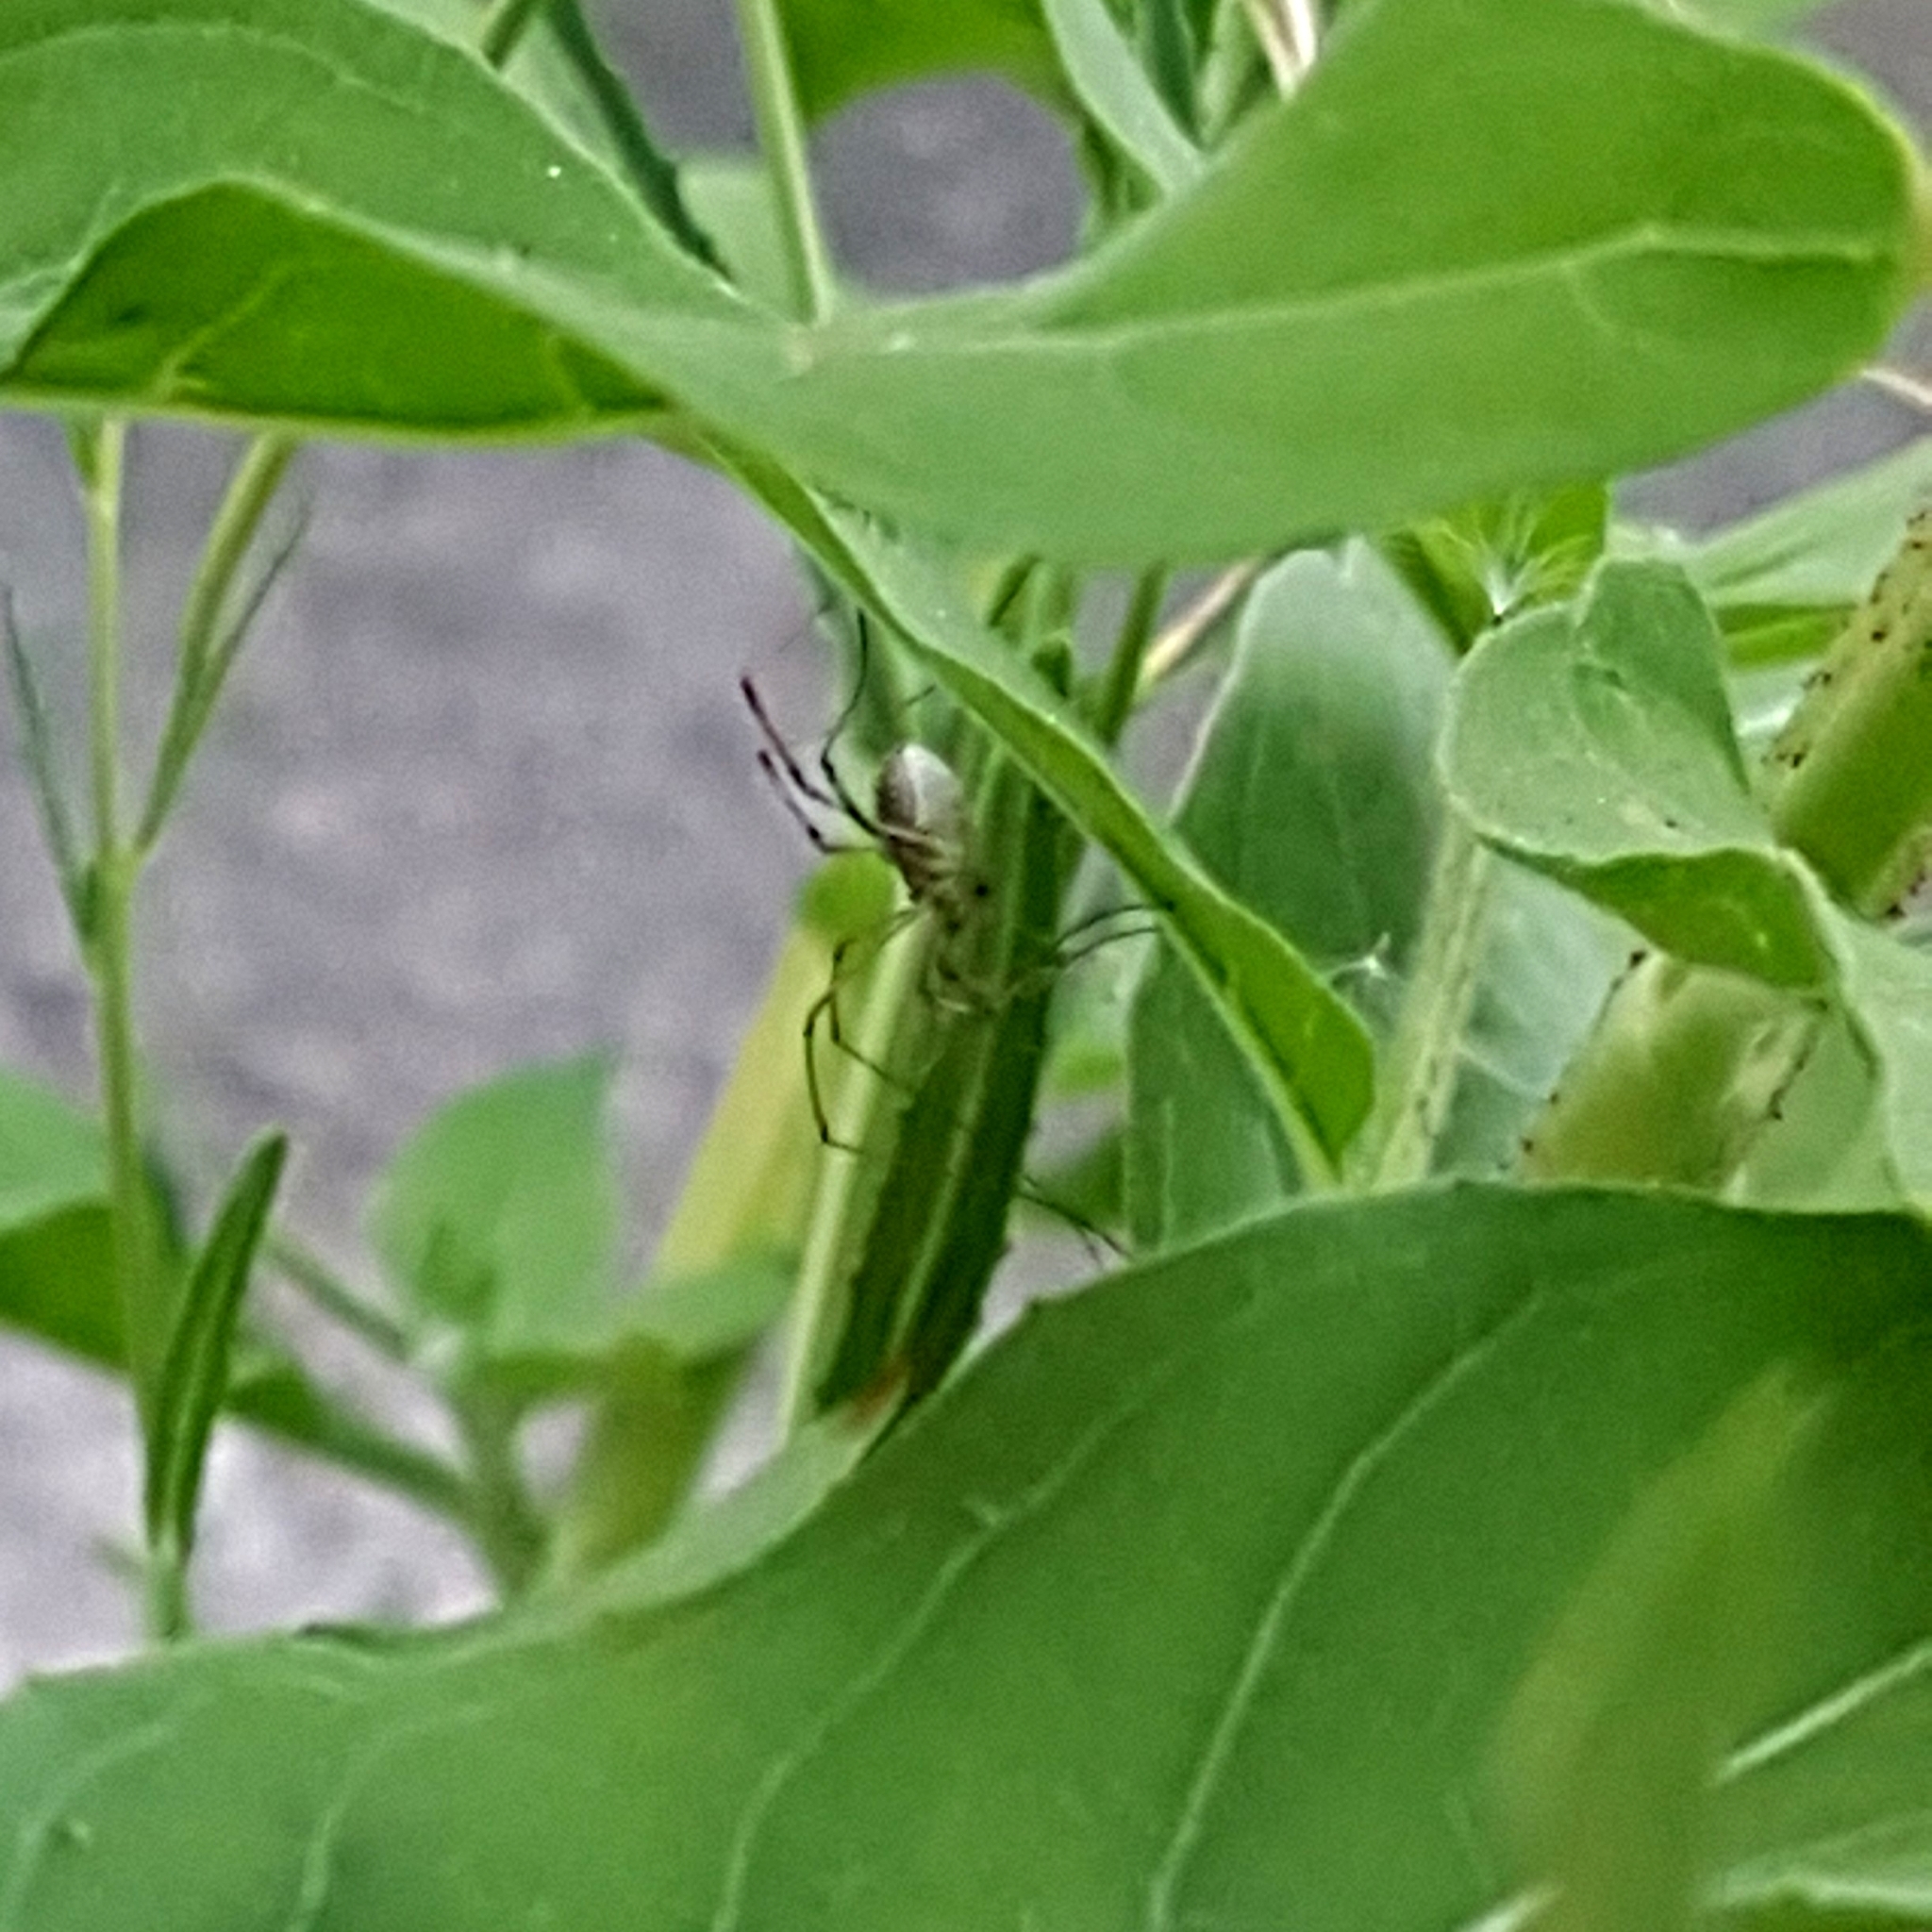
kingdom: Animalia
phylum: Arthropoda
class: Arachnida
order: Opiliones
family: Phalangiidae
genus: Phalangium
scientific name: Phalangium opilio
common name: Daddy longleg
